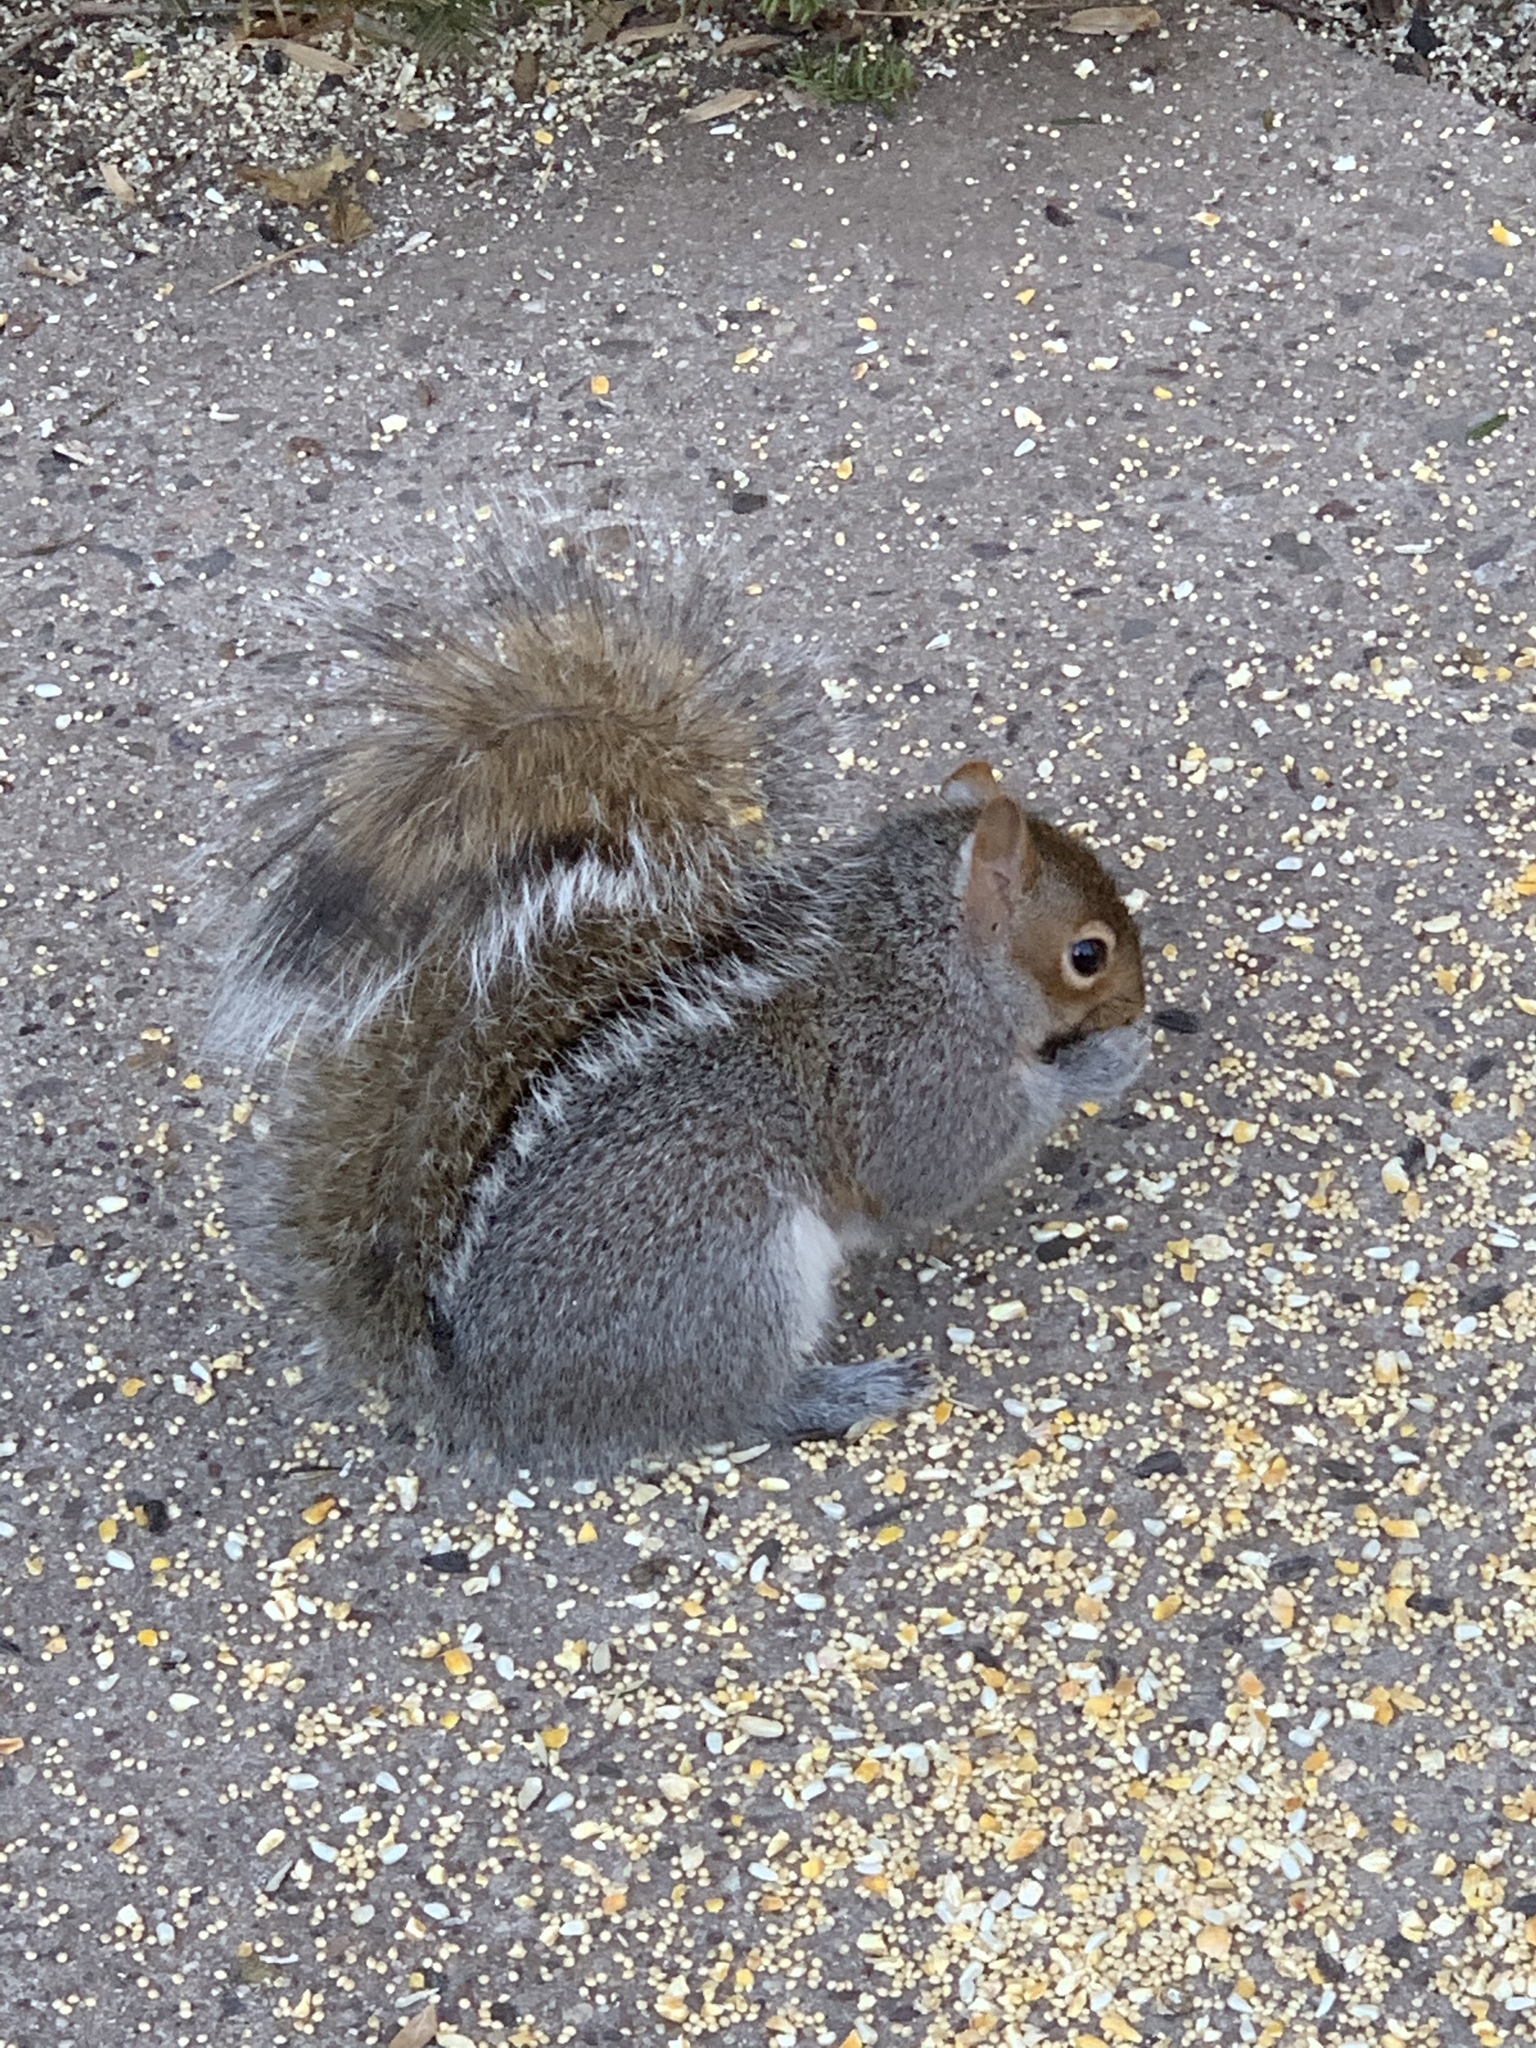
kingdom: Animalia
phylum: Chordata
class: Mammalia
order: Rodentia
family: Sciuridae
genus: Sciurus
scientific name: Sciurus carolinensis
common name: Eastern gray squirrel
